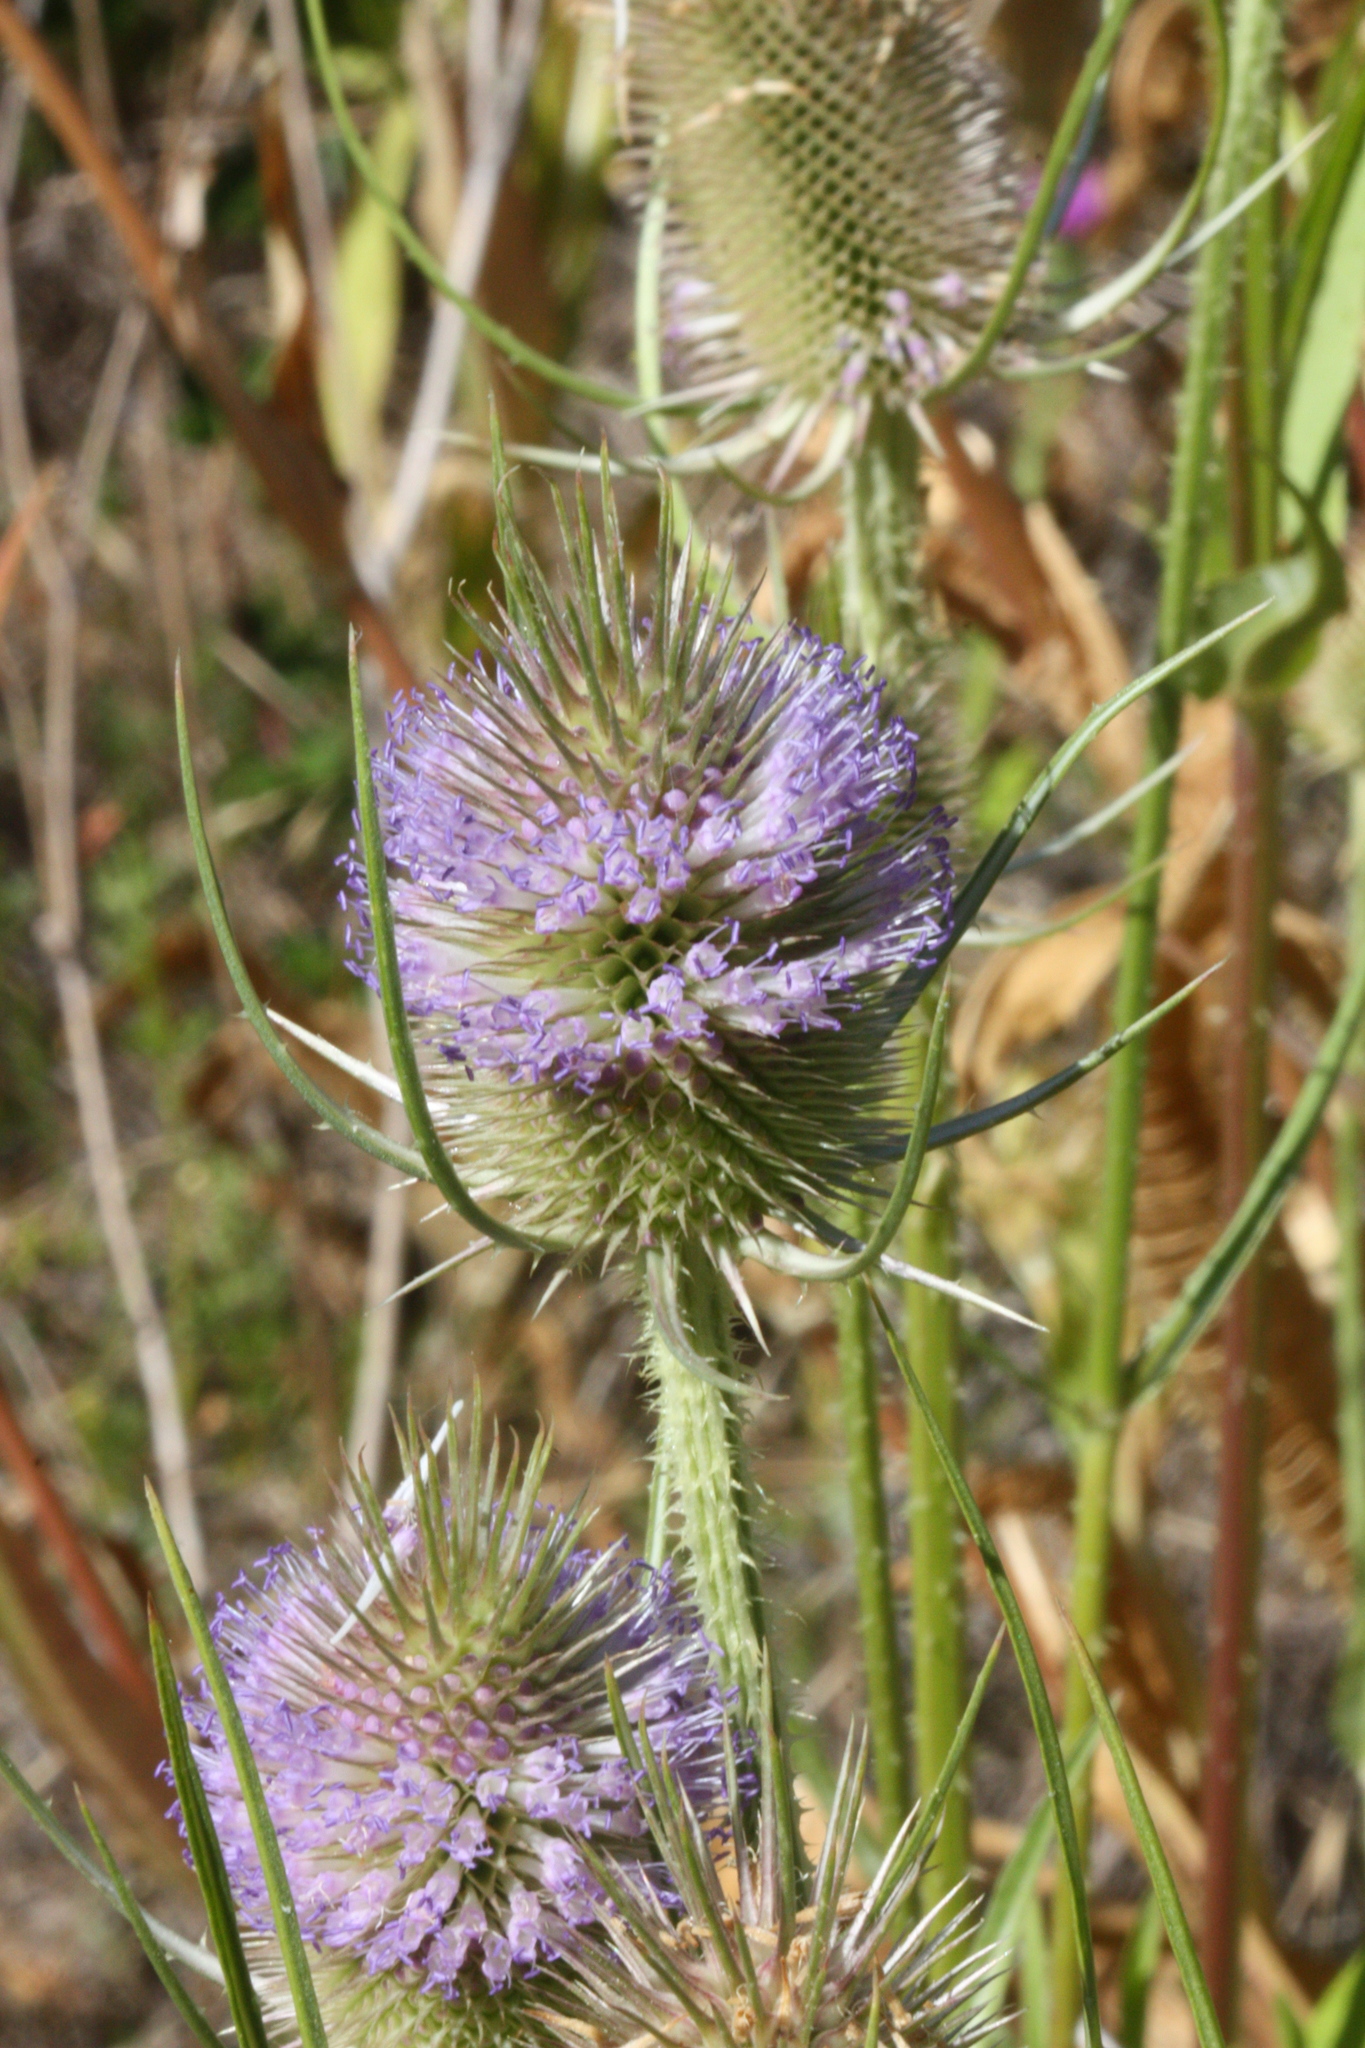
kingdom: Plantae
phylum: Tracheophyta
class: Magnoliopsida
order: Dipsacales
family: Caprifoliaceae
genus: Dipsacus
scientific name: Dipsacus fullonum
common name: Teasel
